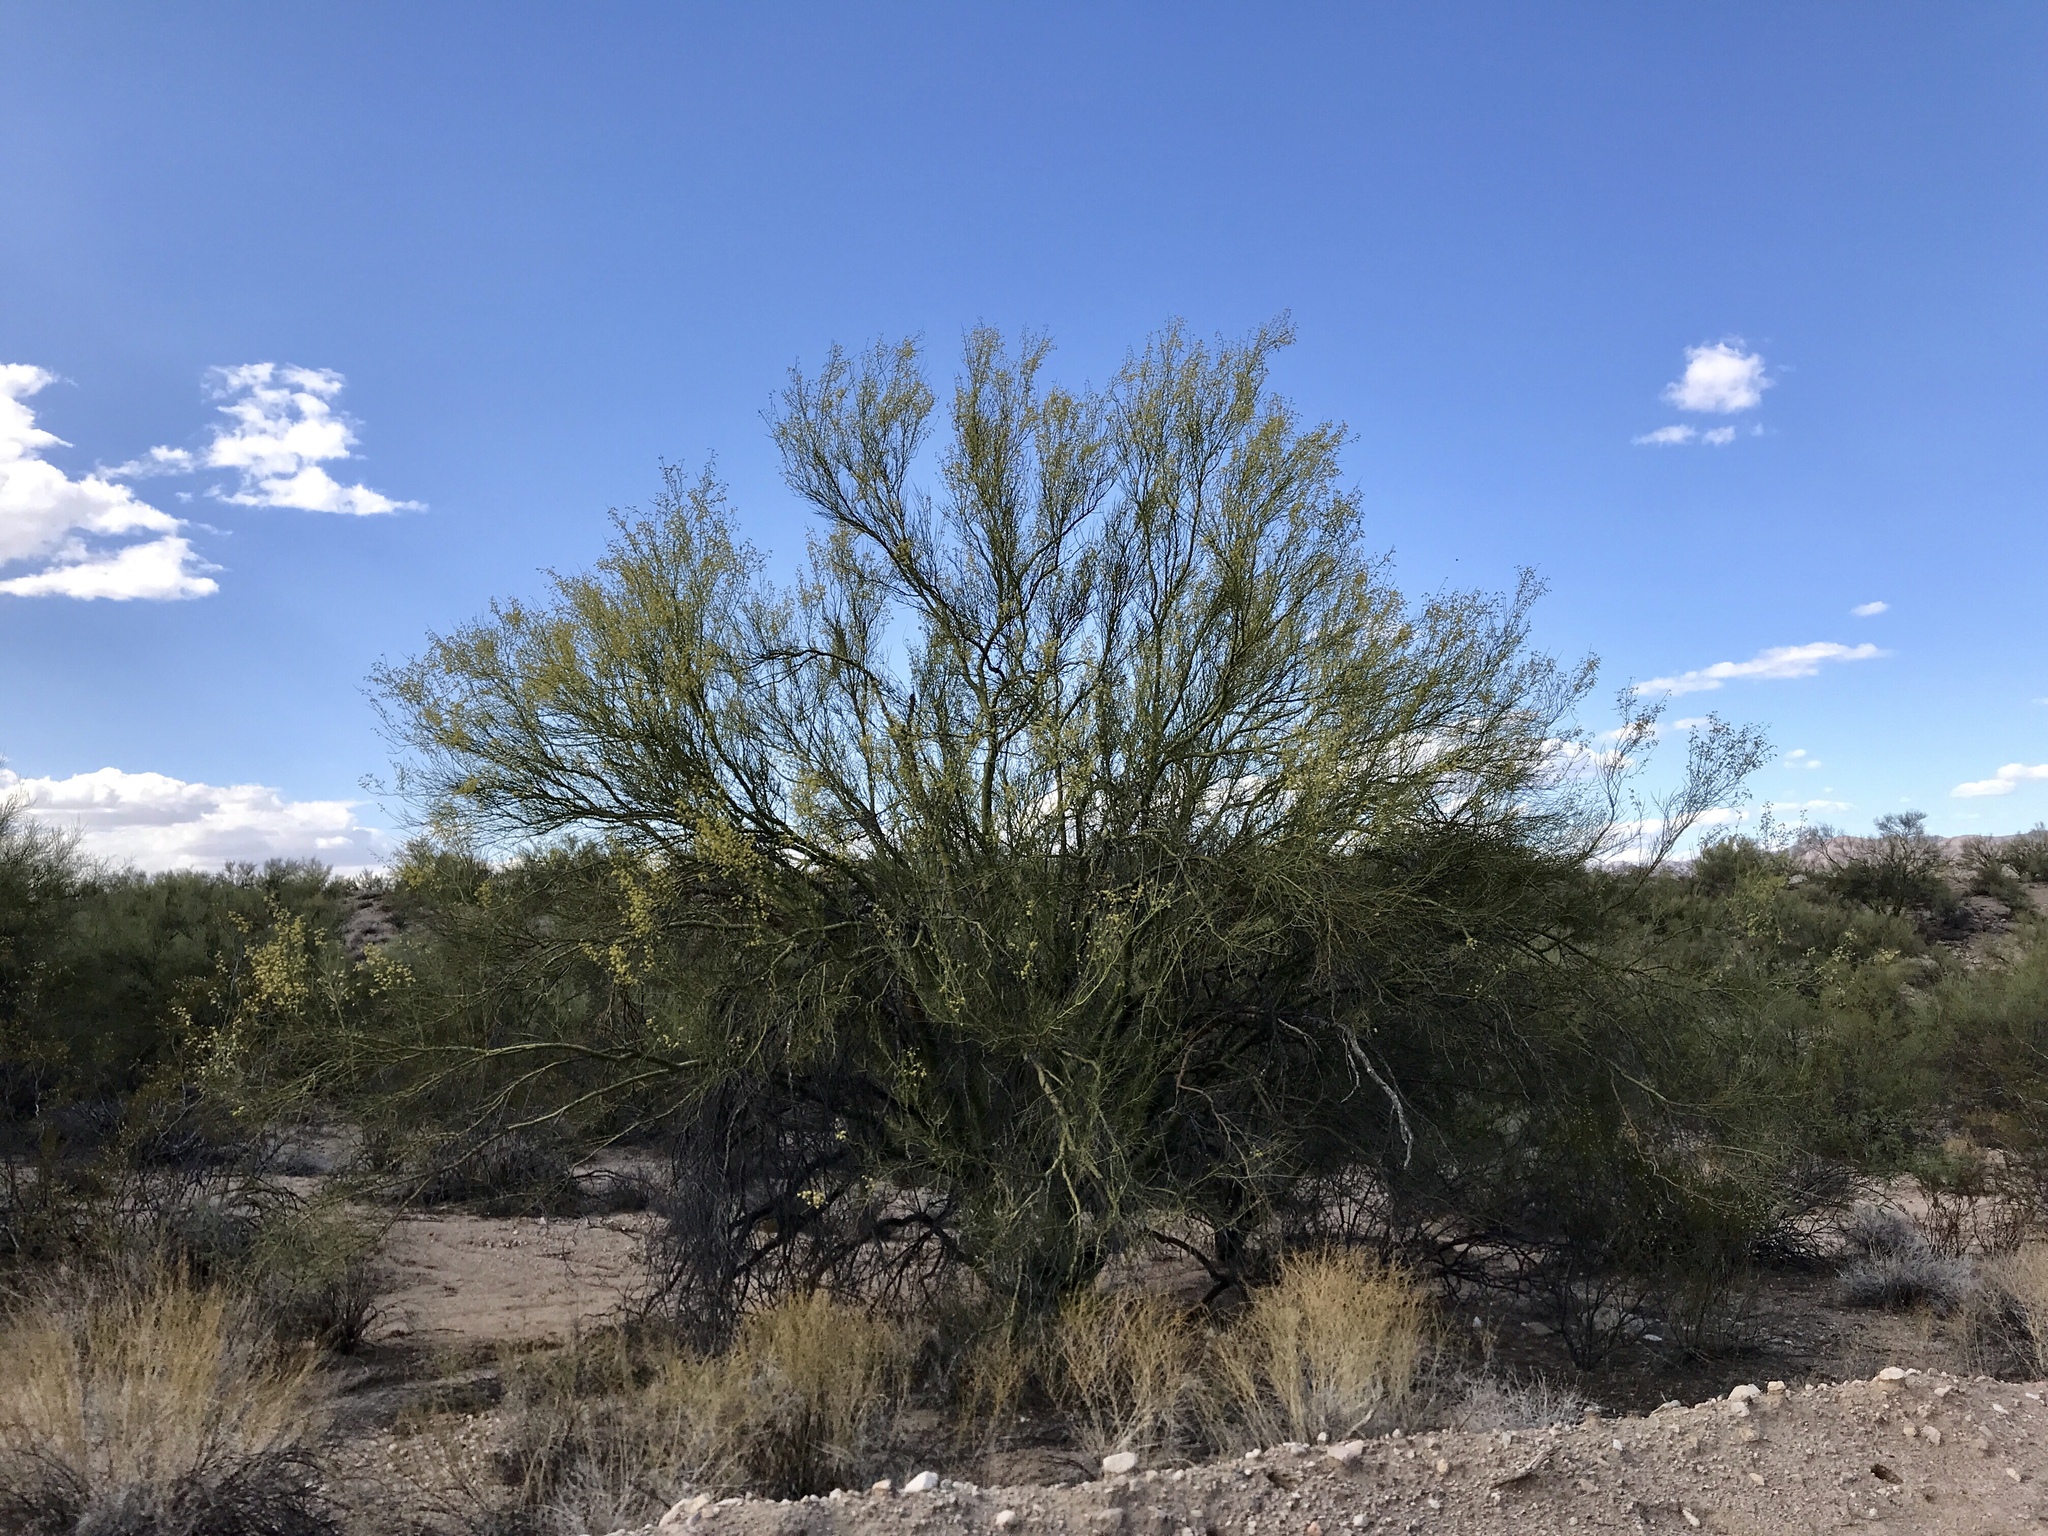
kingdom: Plantae
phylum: Tracheophyta
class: Magnoliopsida
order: Fabales
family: Fabaceae
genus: Parkinsonia
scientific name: Parkinsonia microphylla
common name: Yellow paloverde
